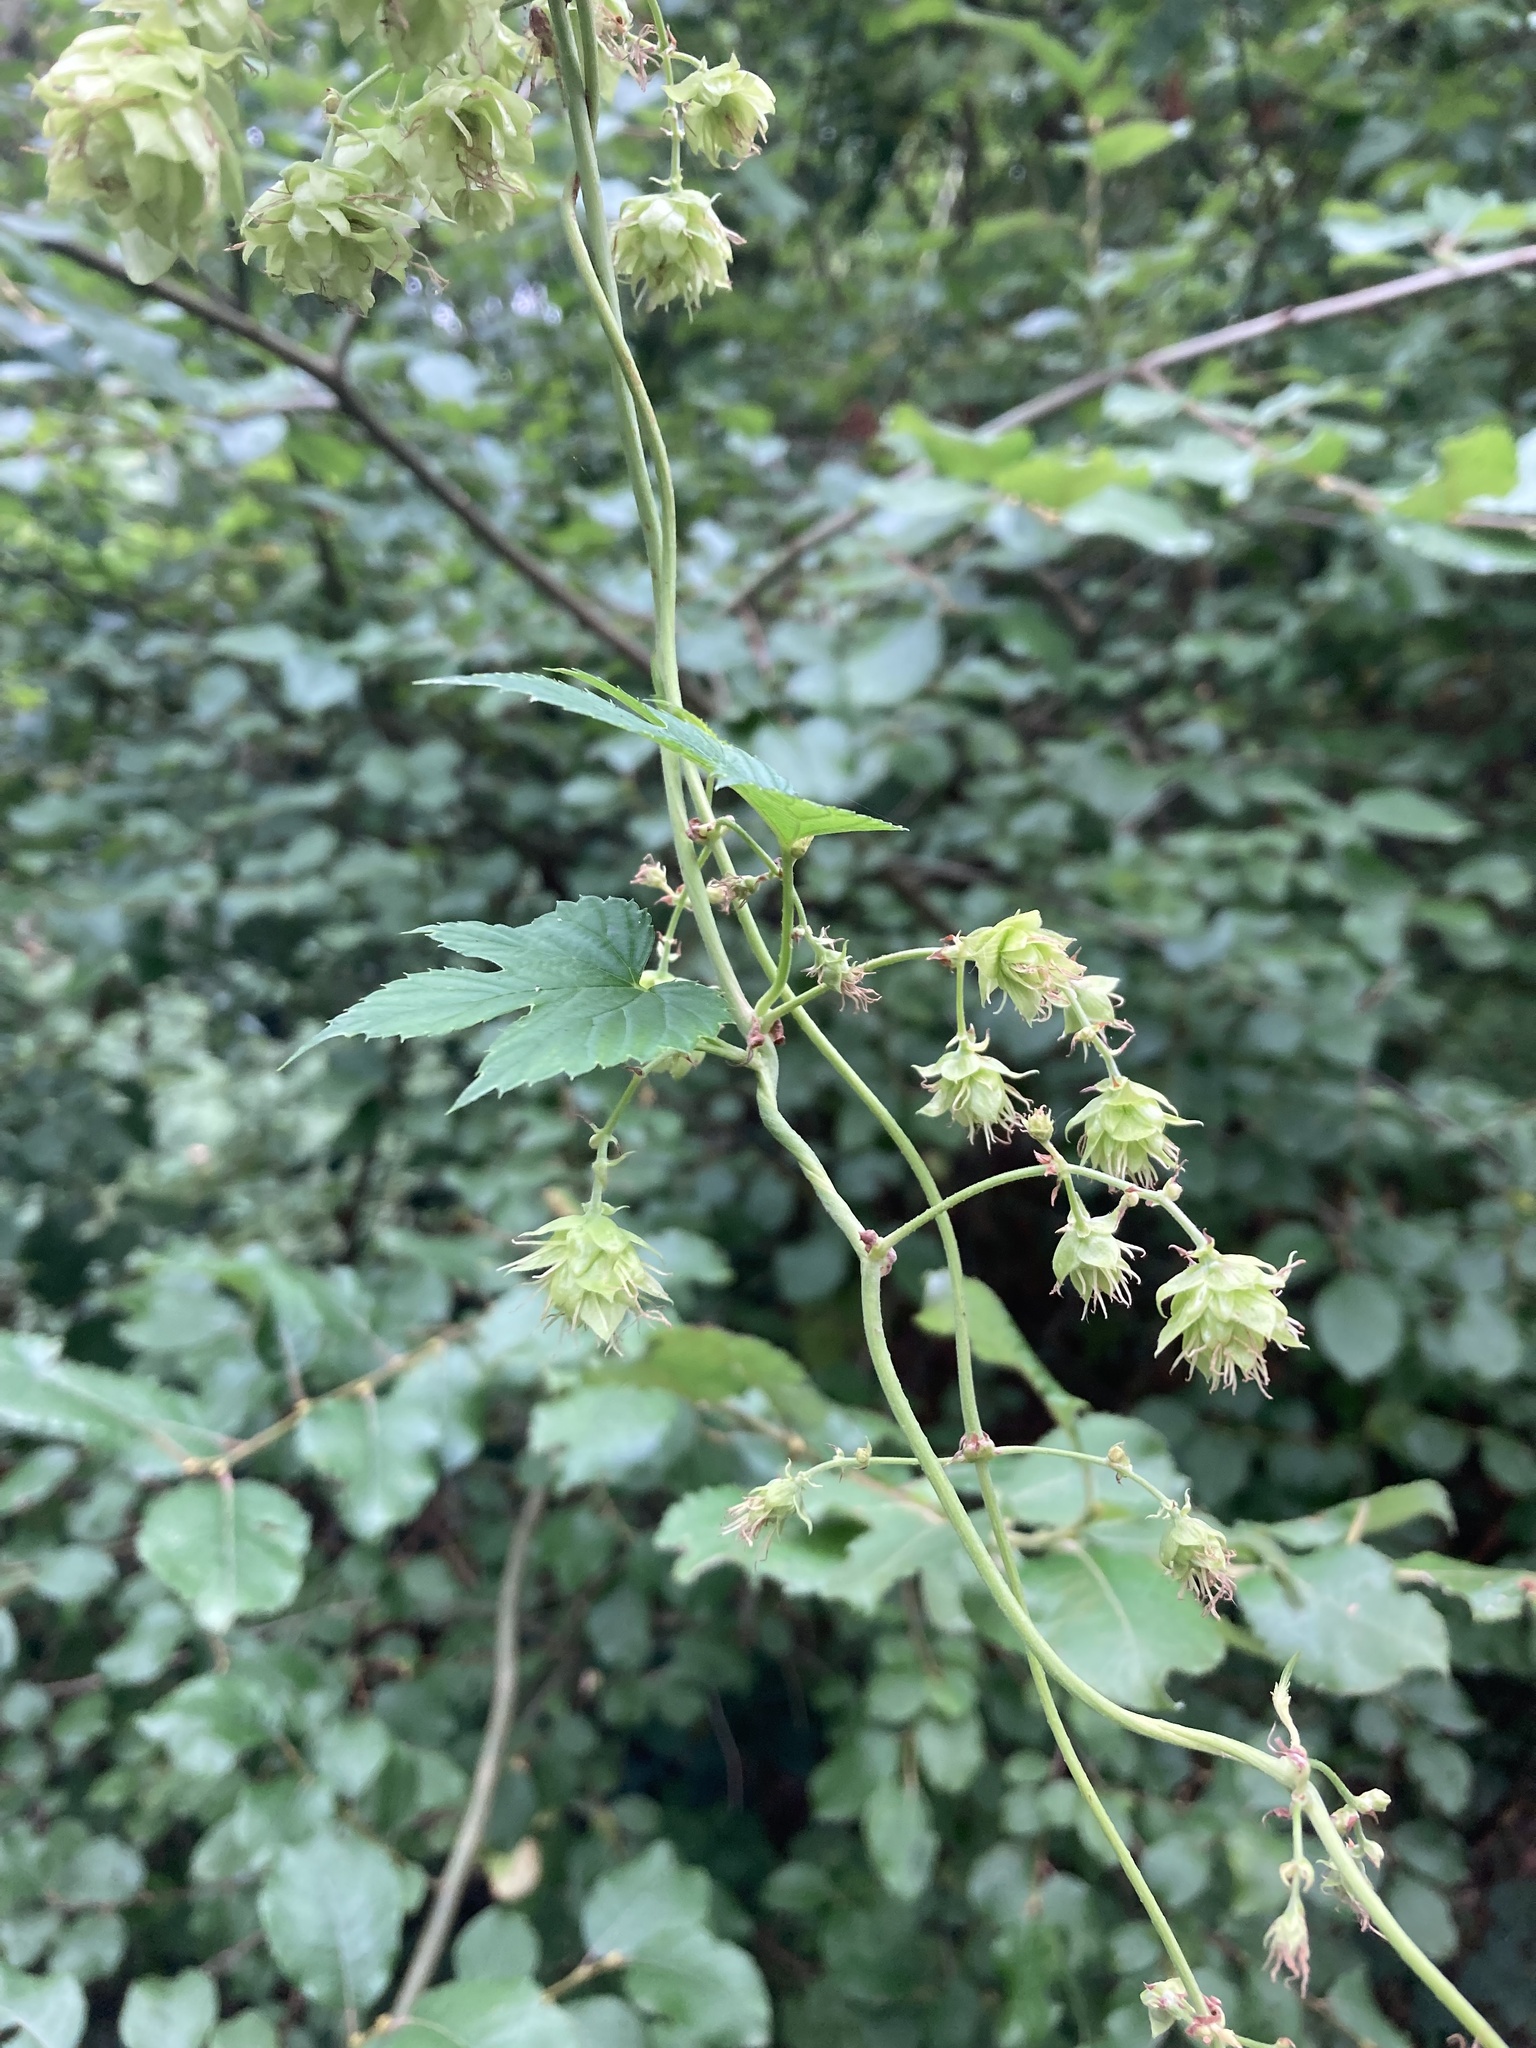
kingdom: Plantae
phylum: Tracheophyta
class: Magnoliopsida
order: Rosales
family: Cannabaceae
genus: Humulus
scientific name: Humulus lupulus
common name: Hop
